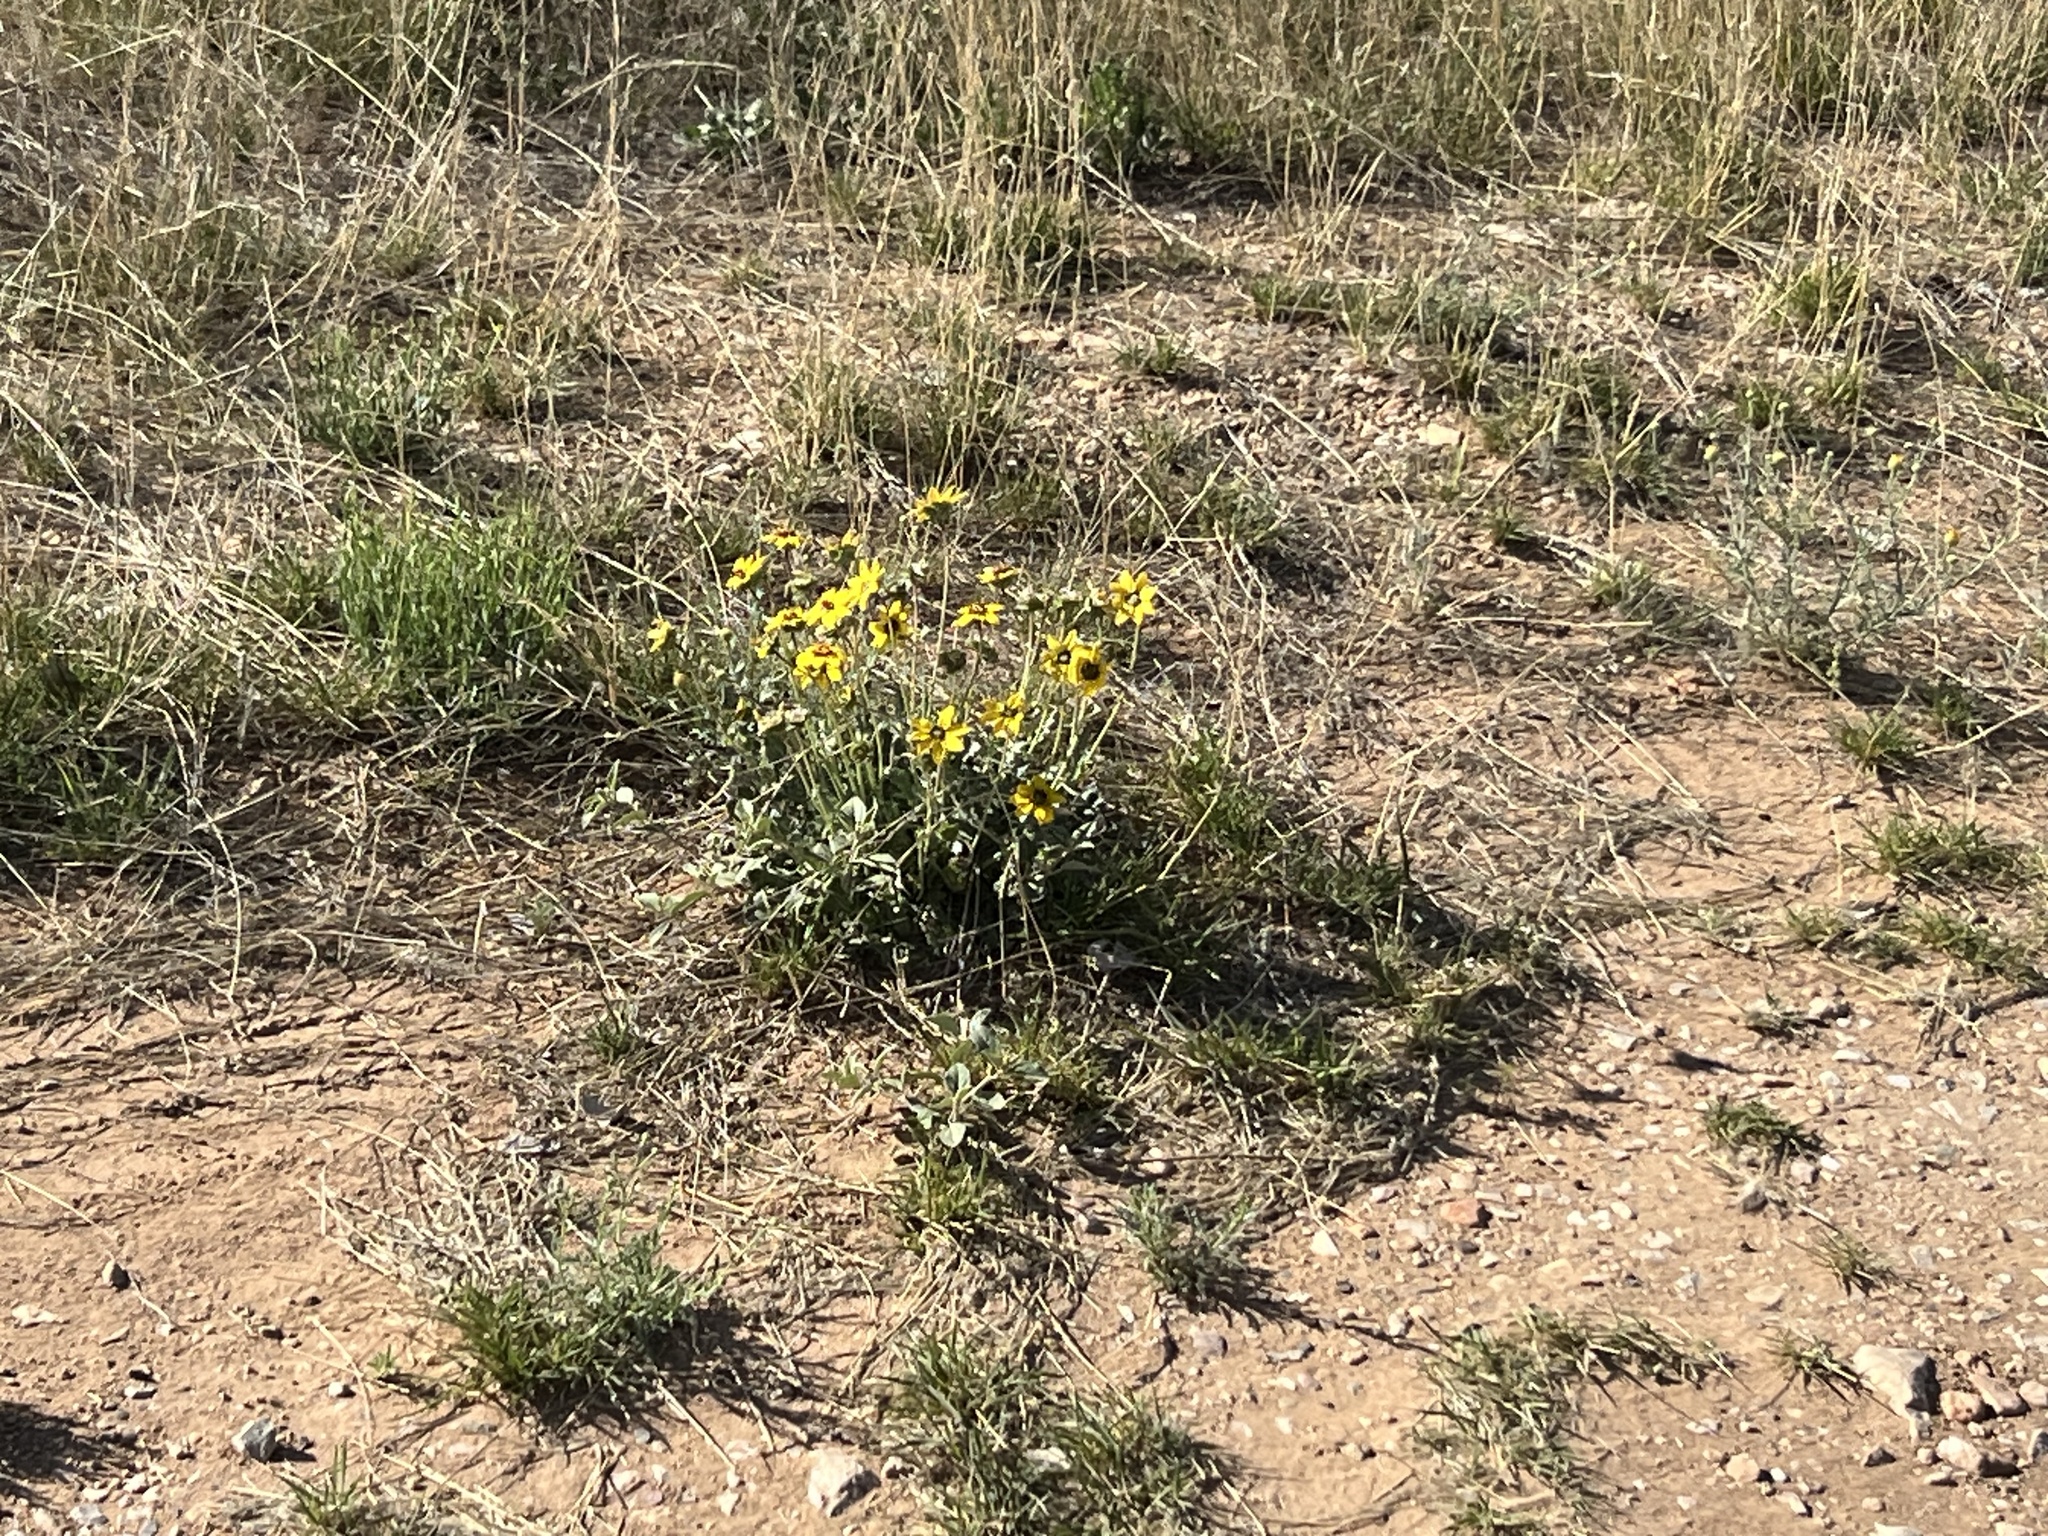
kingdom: Plantae
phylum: Tracheophyta
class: Magnoliopsida
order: Asterales
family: Asteraceae
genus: Berlandiera
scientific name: Berlandiera lyrata
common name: Chocolate-flower
